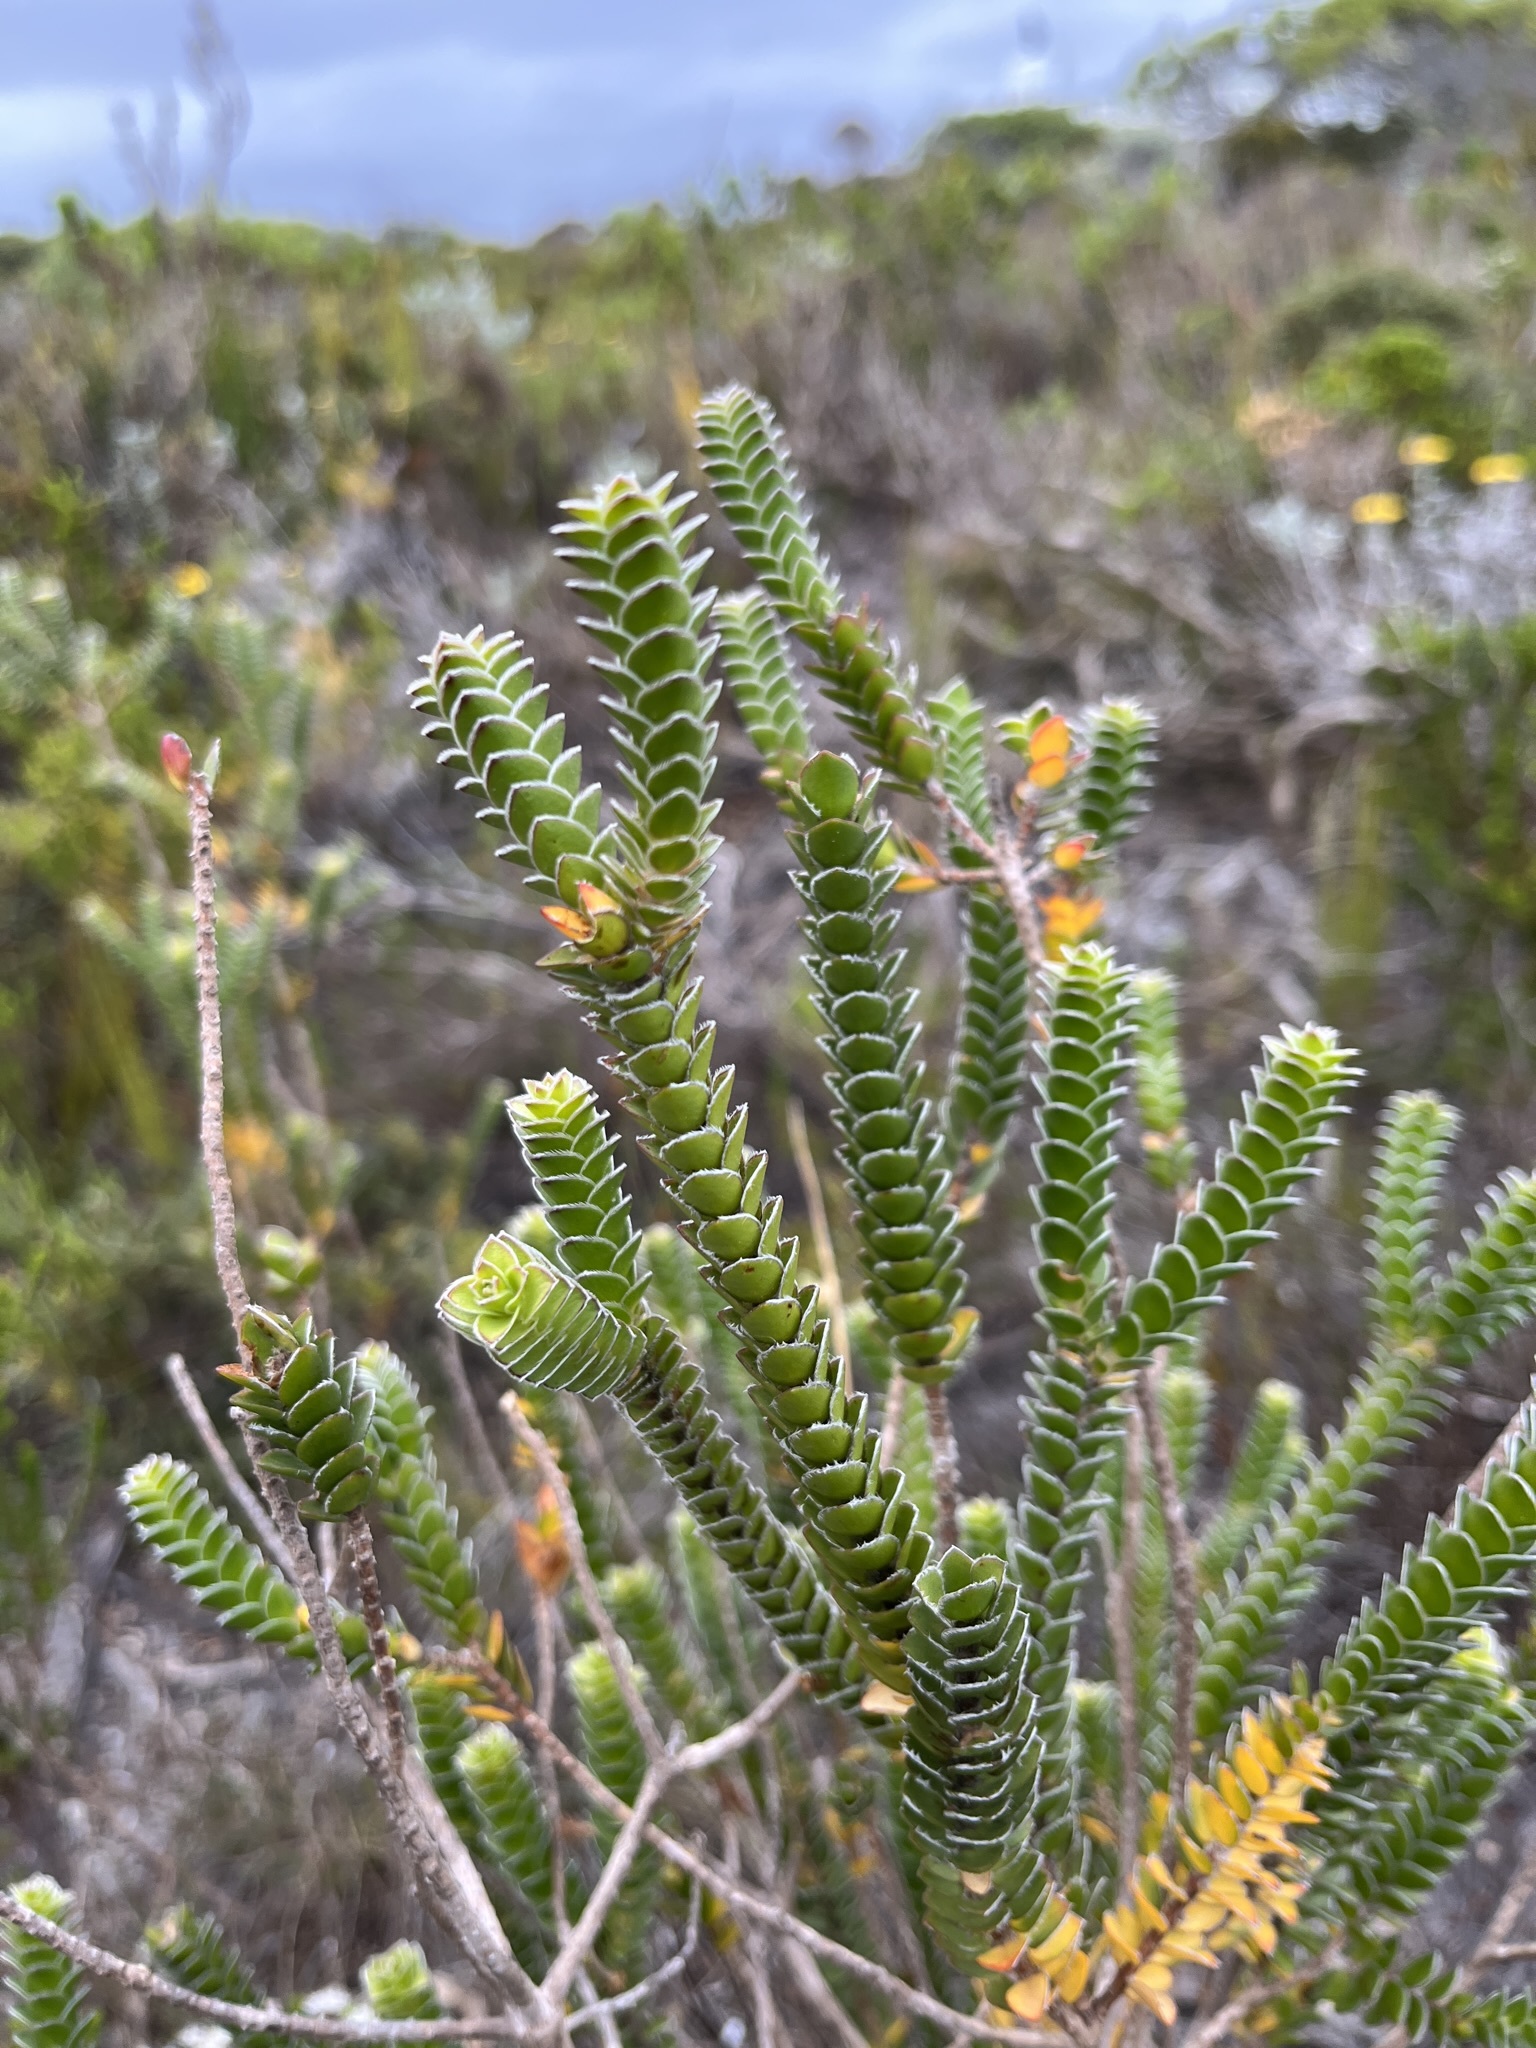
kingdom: Plantae
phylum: Tracheophyta
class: Magnoliopsida
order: Malvales
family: Thymelaeaceae
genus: Struthiola
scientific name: Struthiola argentea
